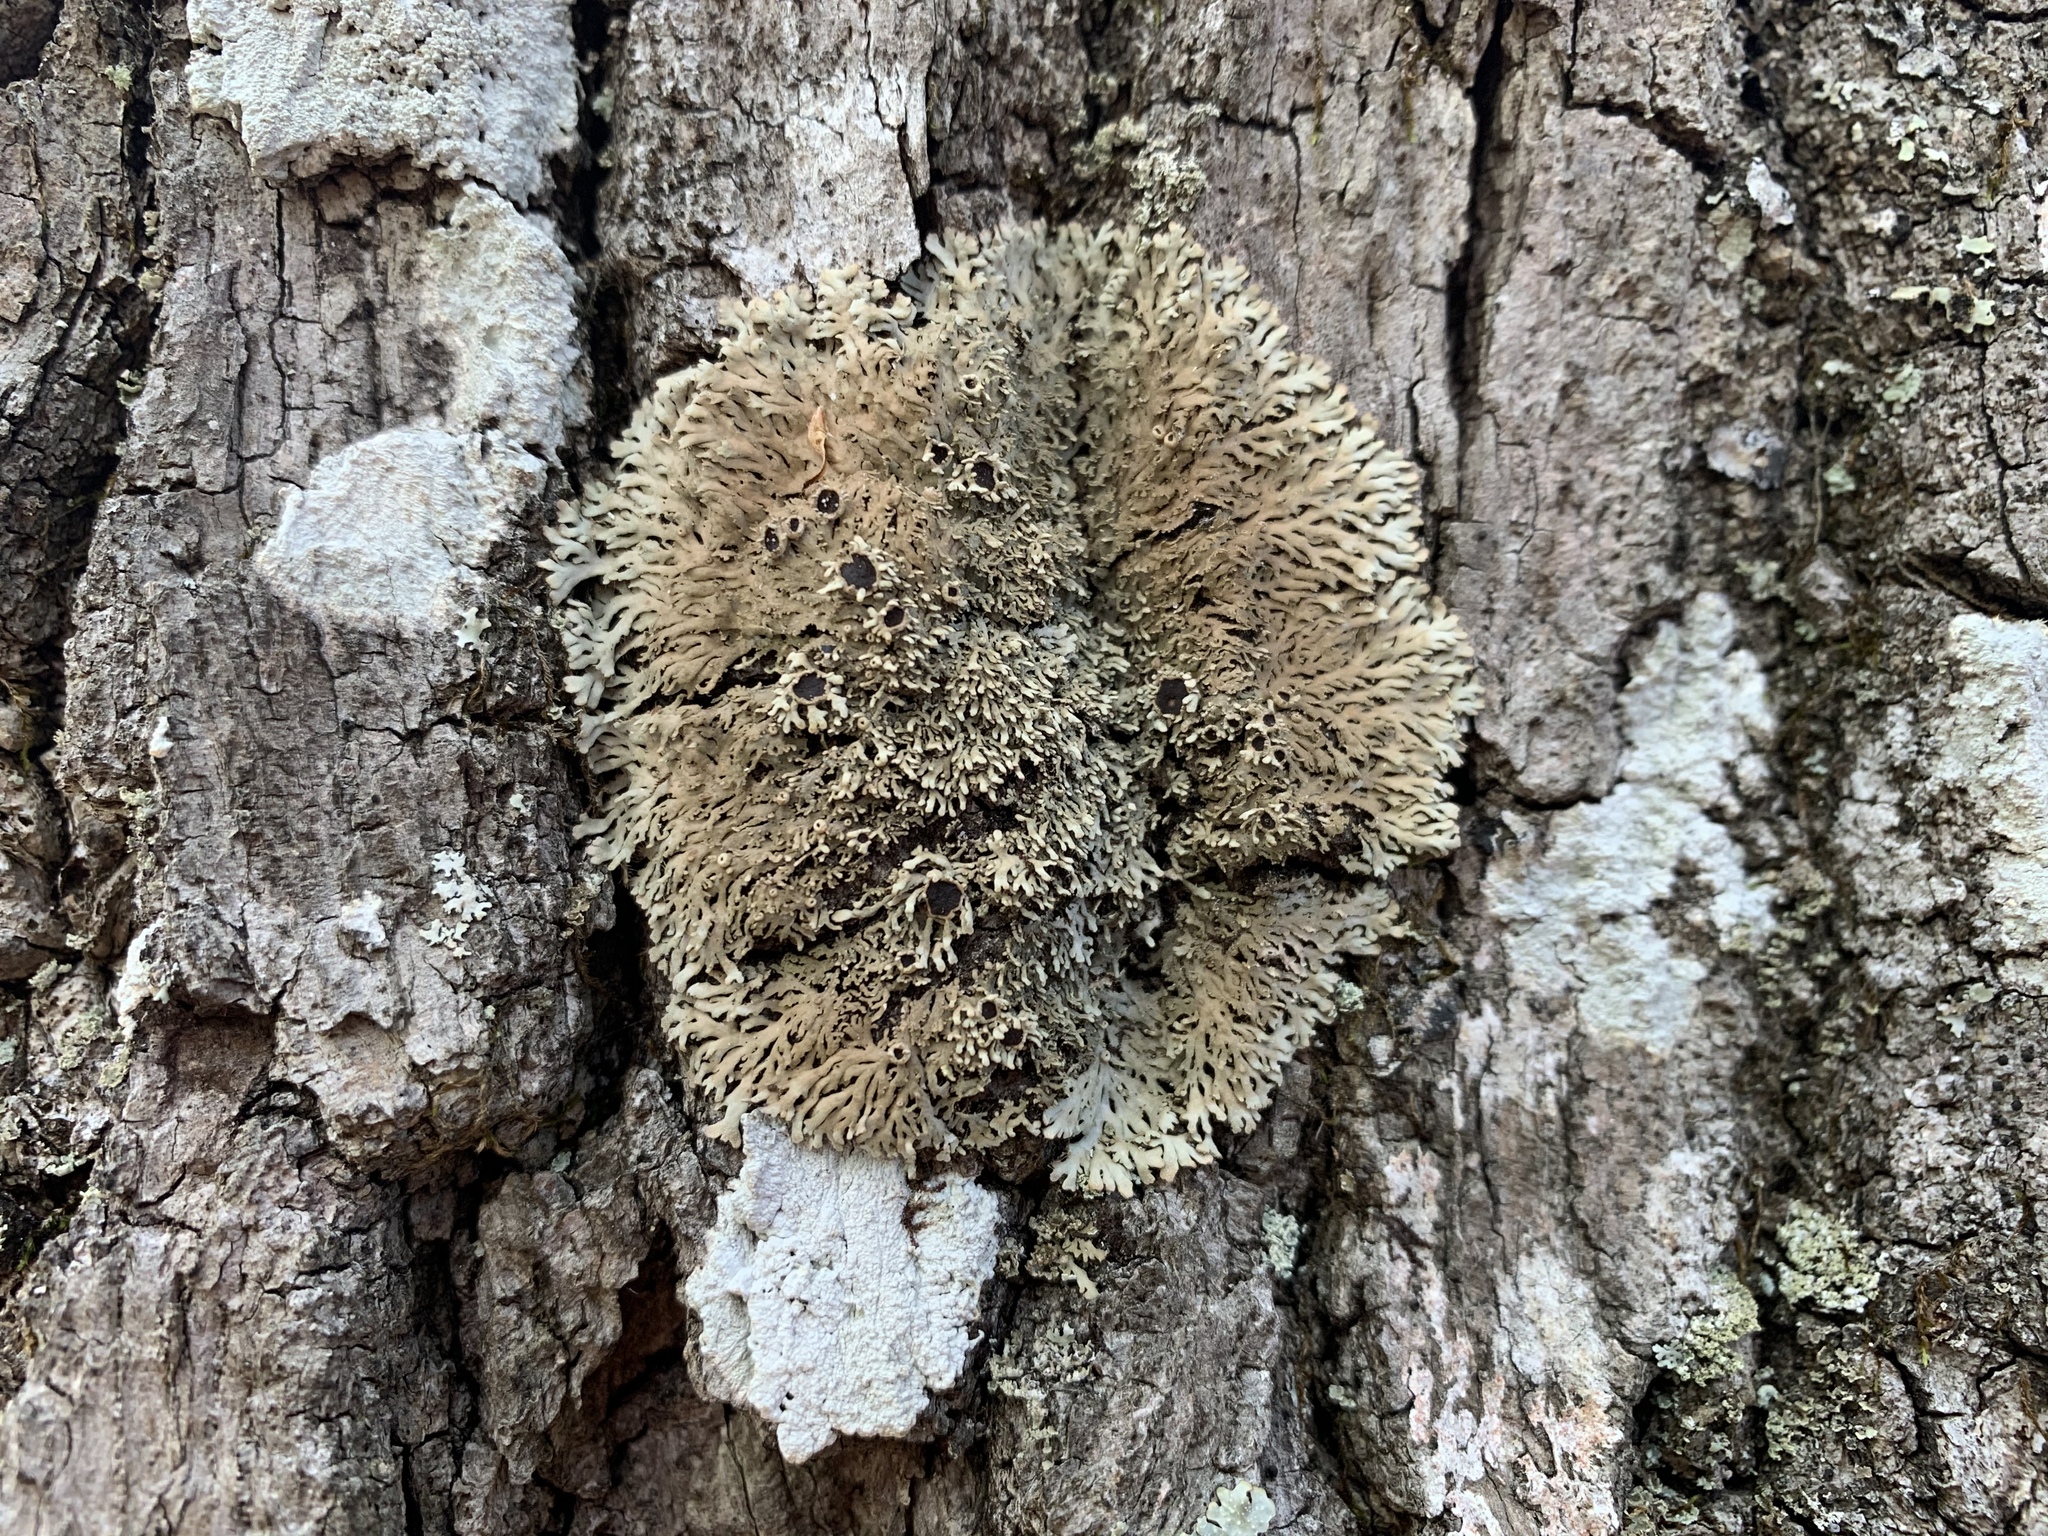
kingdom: Fungi
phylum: Ascomycota
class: Lecanoromycetes
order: Caliciales
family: Physciaceae
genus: Kurokawia
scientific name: Kurokawia palmulata
